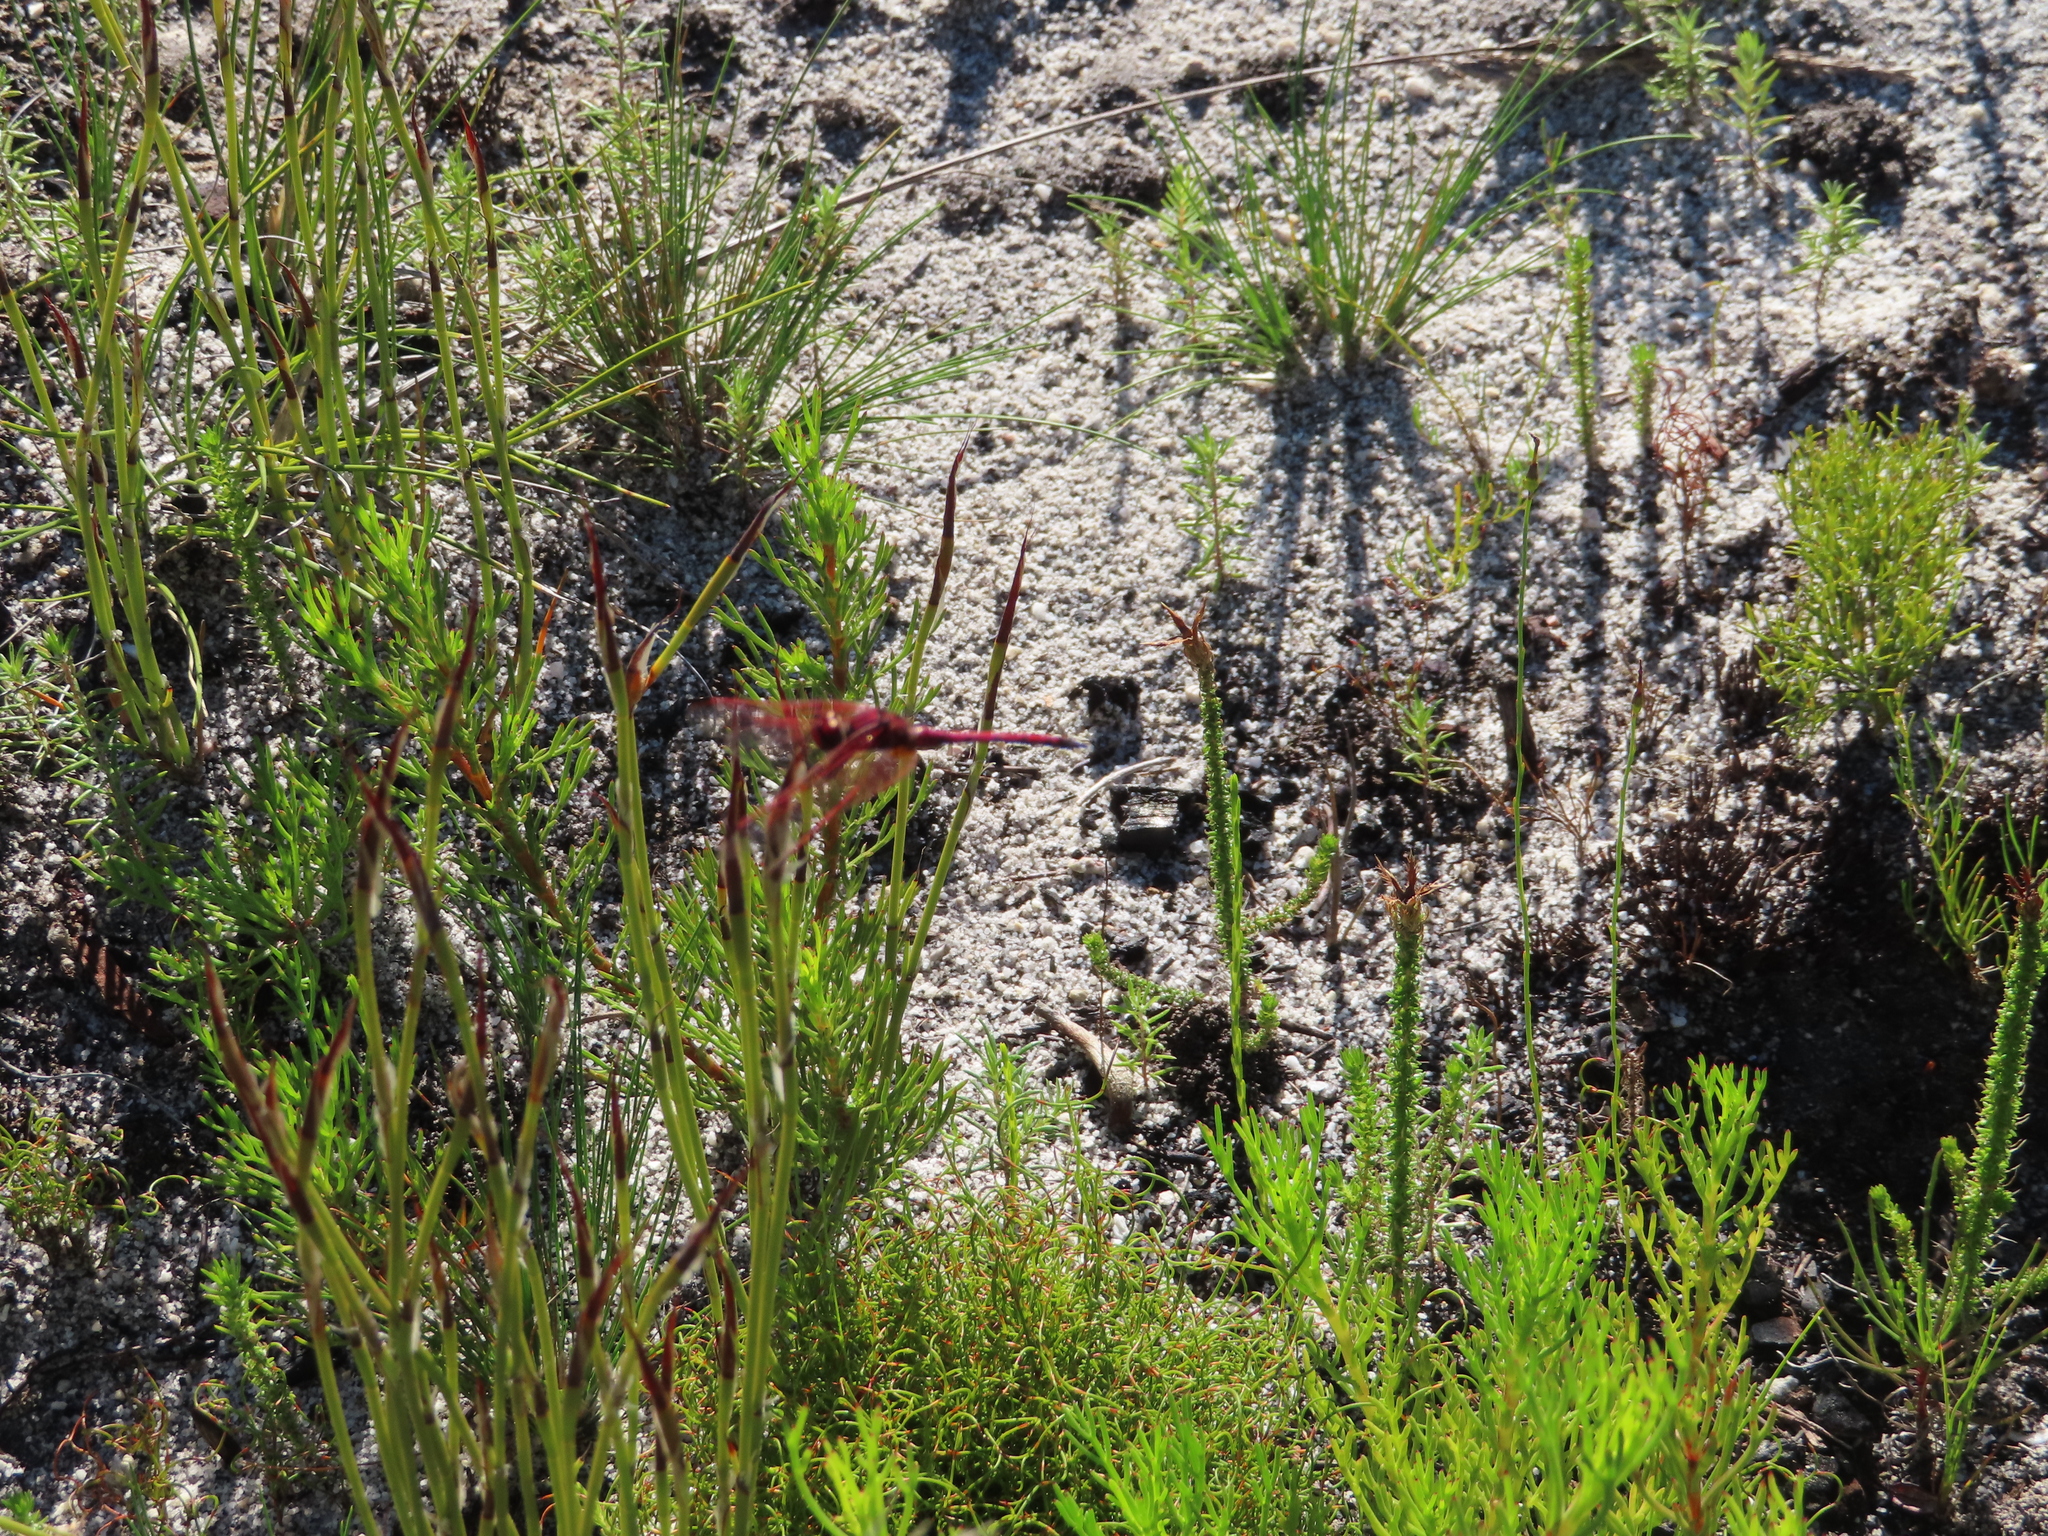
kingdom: Animalia
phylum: Arthropoda
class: Insecta
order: Odonata
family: Libellulidae
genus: Trithemis
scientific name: Trithemis arteriosa
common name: Red-veined dropwing
